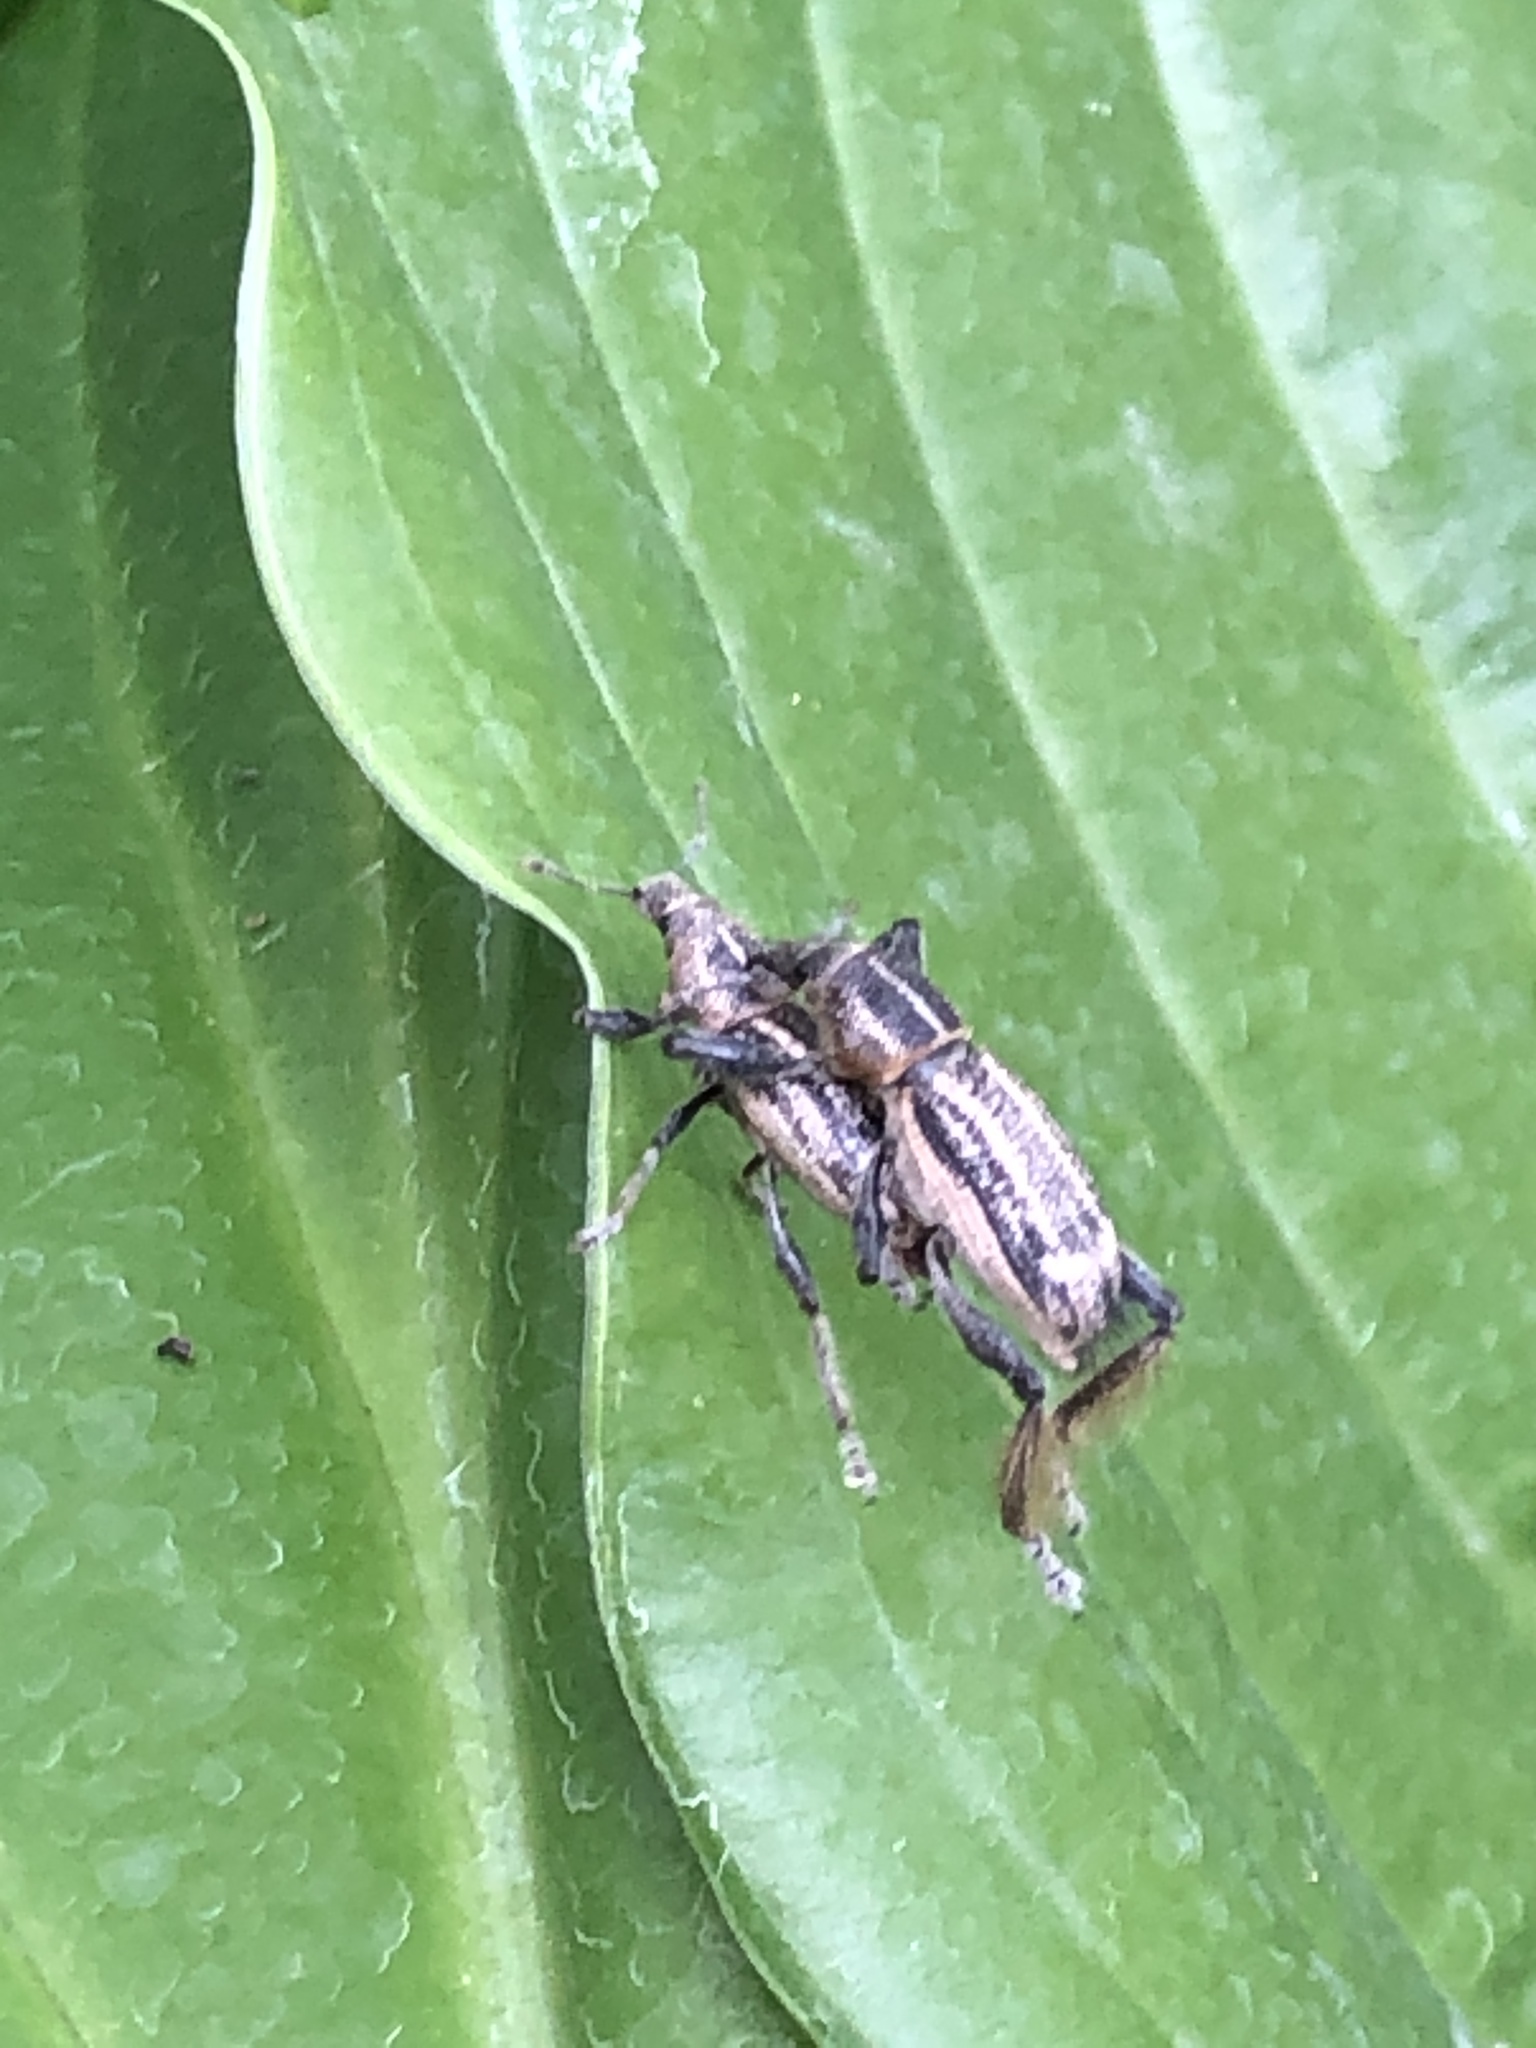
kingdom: Animalia
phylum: Arthropoda
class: Insecta
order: Coleoptera
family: Curculionidae
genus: Enaptorhinus
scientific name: Enaptorhinus granulatus
